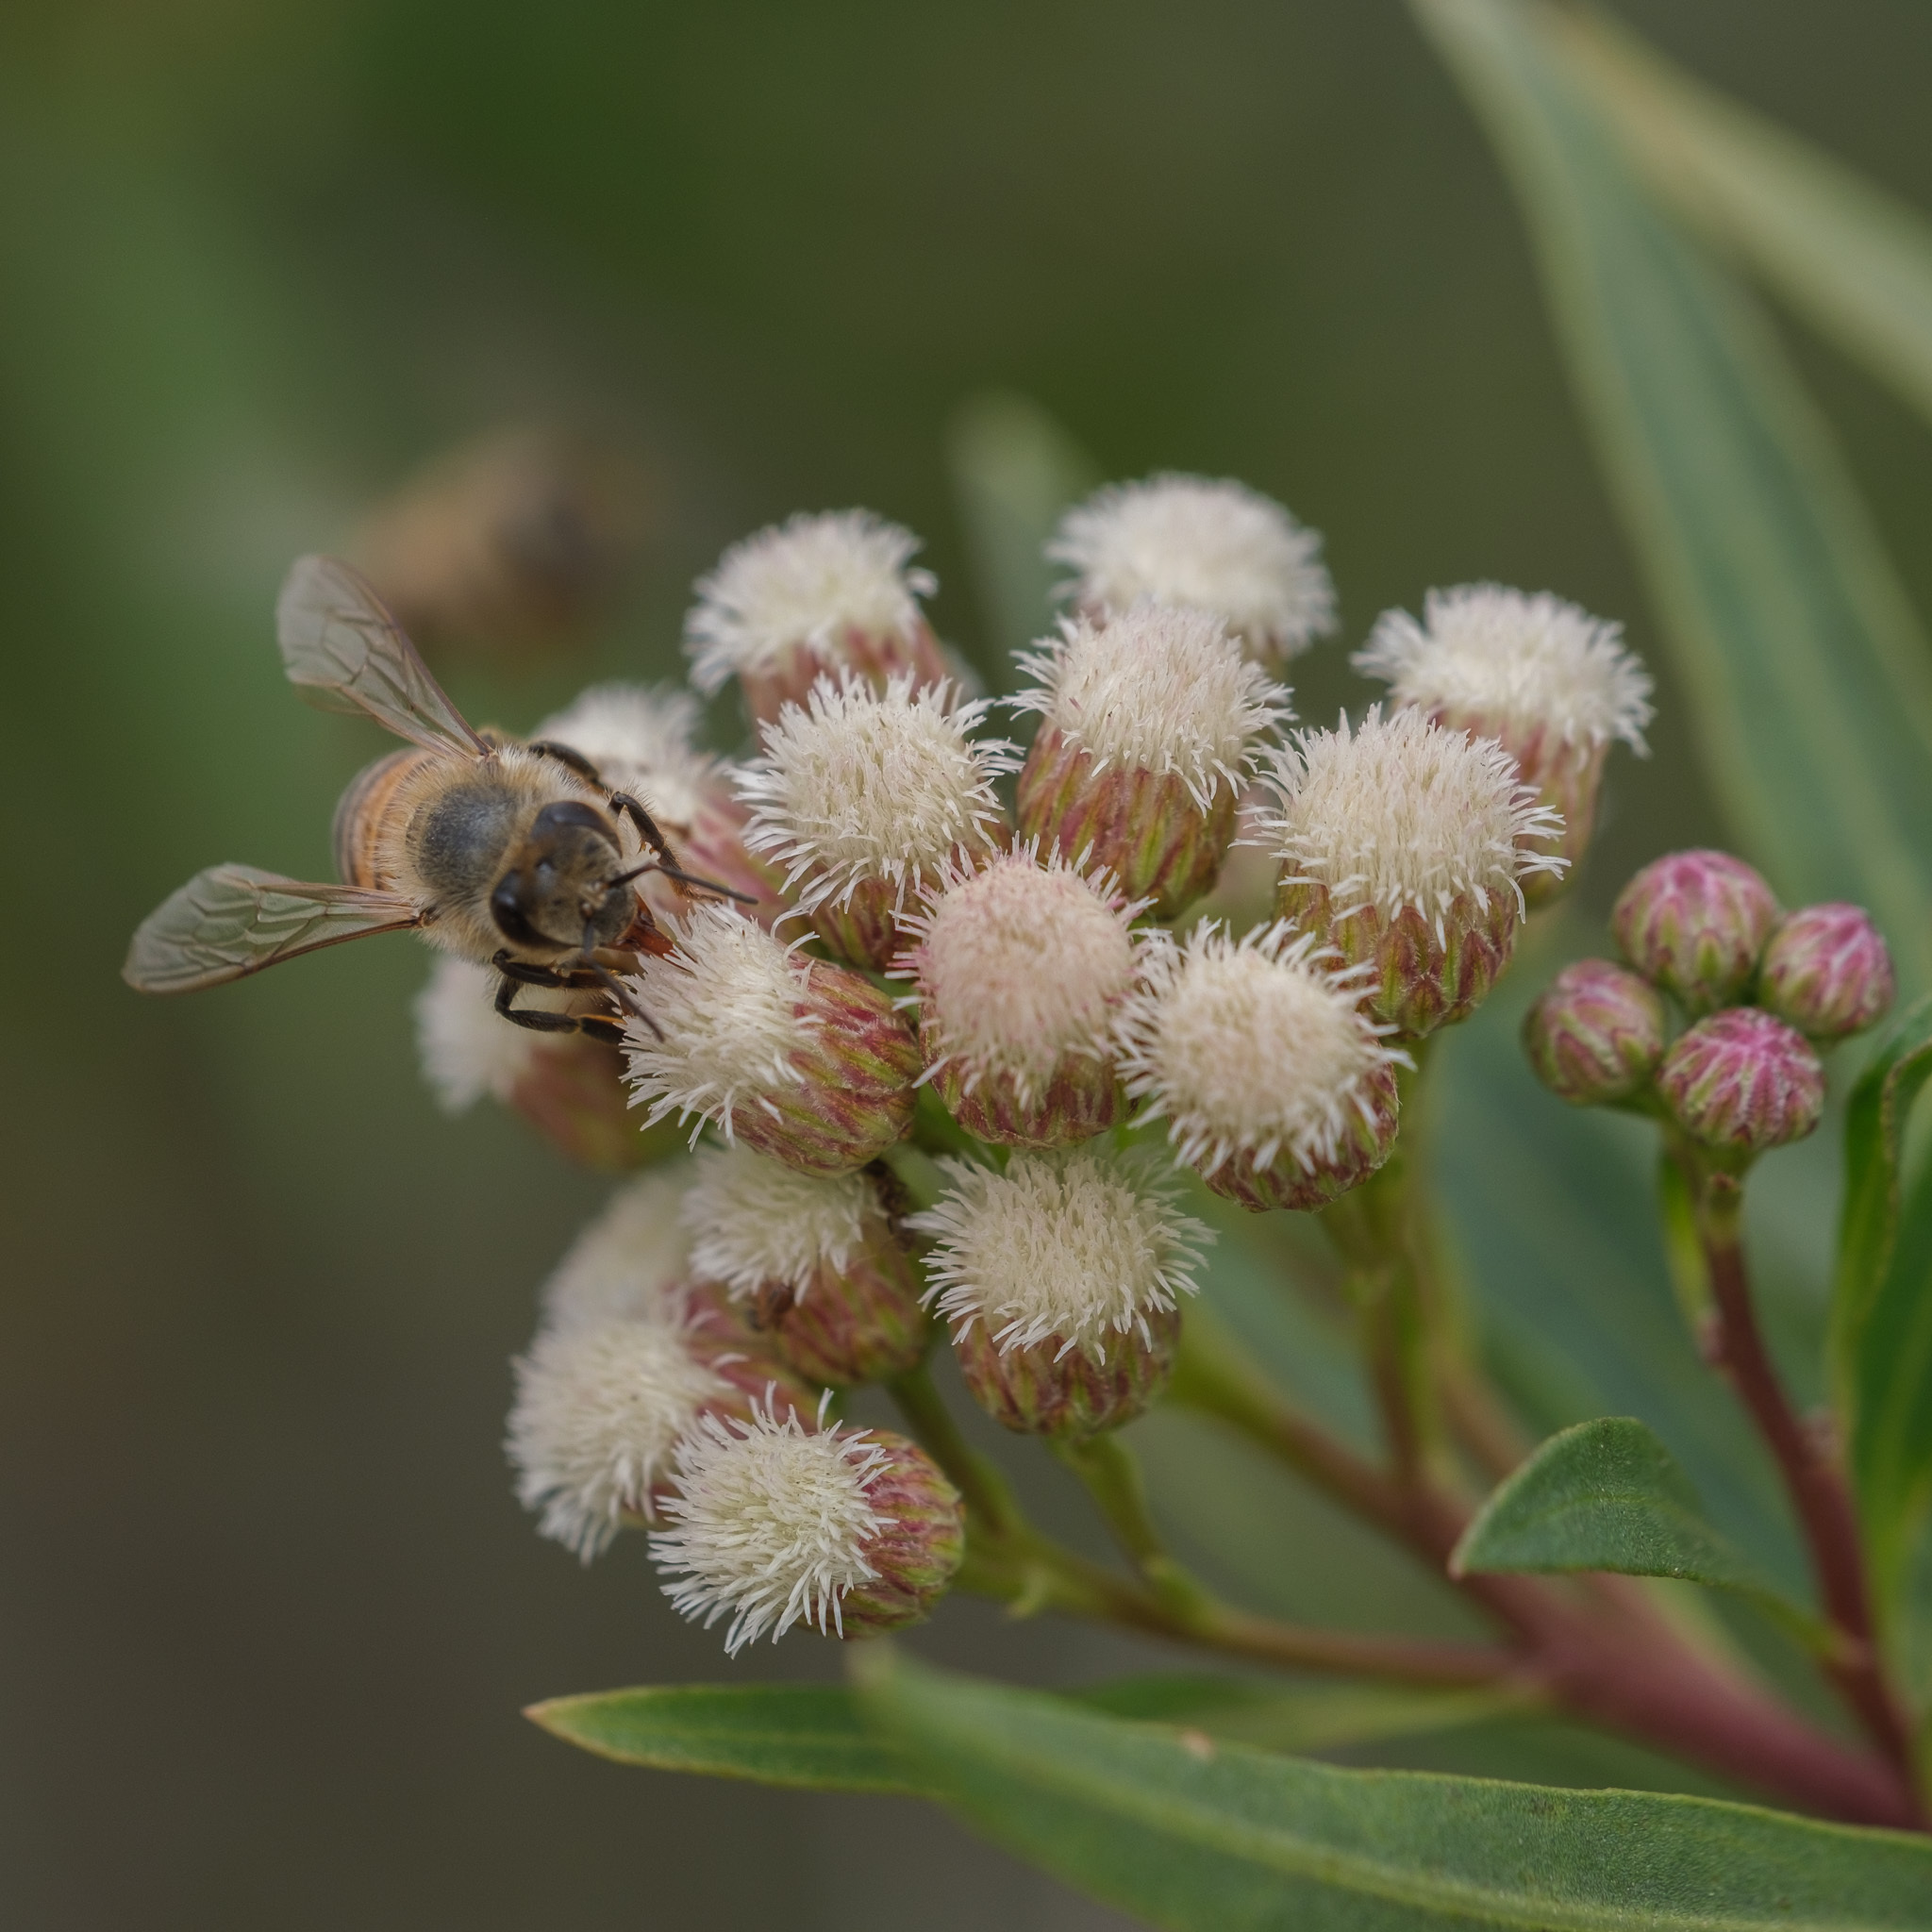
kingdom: Animalia
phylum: Arthropoda
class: Insecta
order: Hymenoptera
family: Apidae
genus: Apis
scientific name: Apis mellifera
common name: Honey bee
